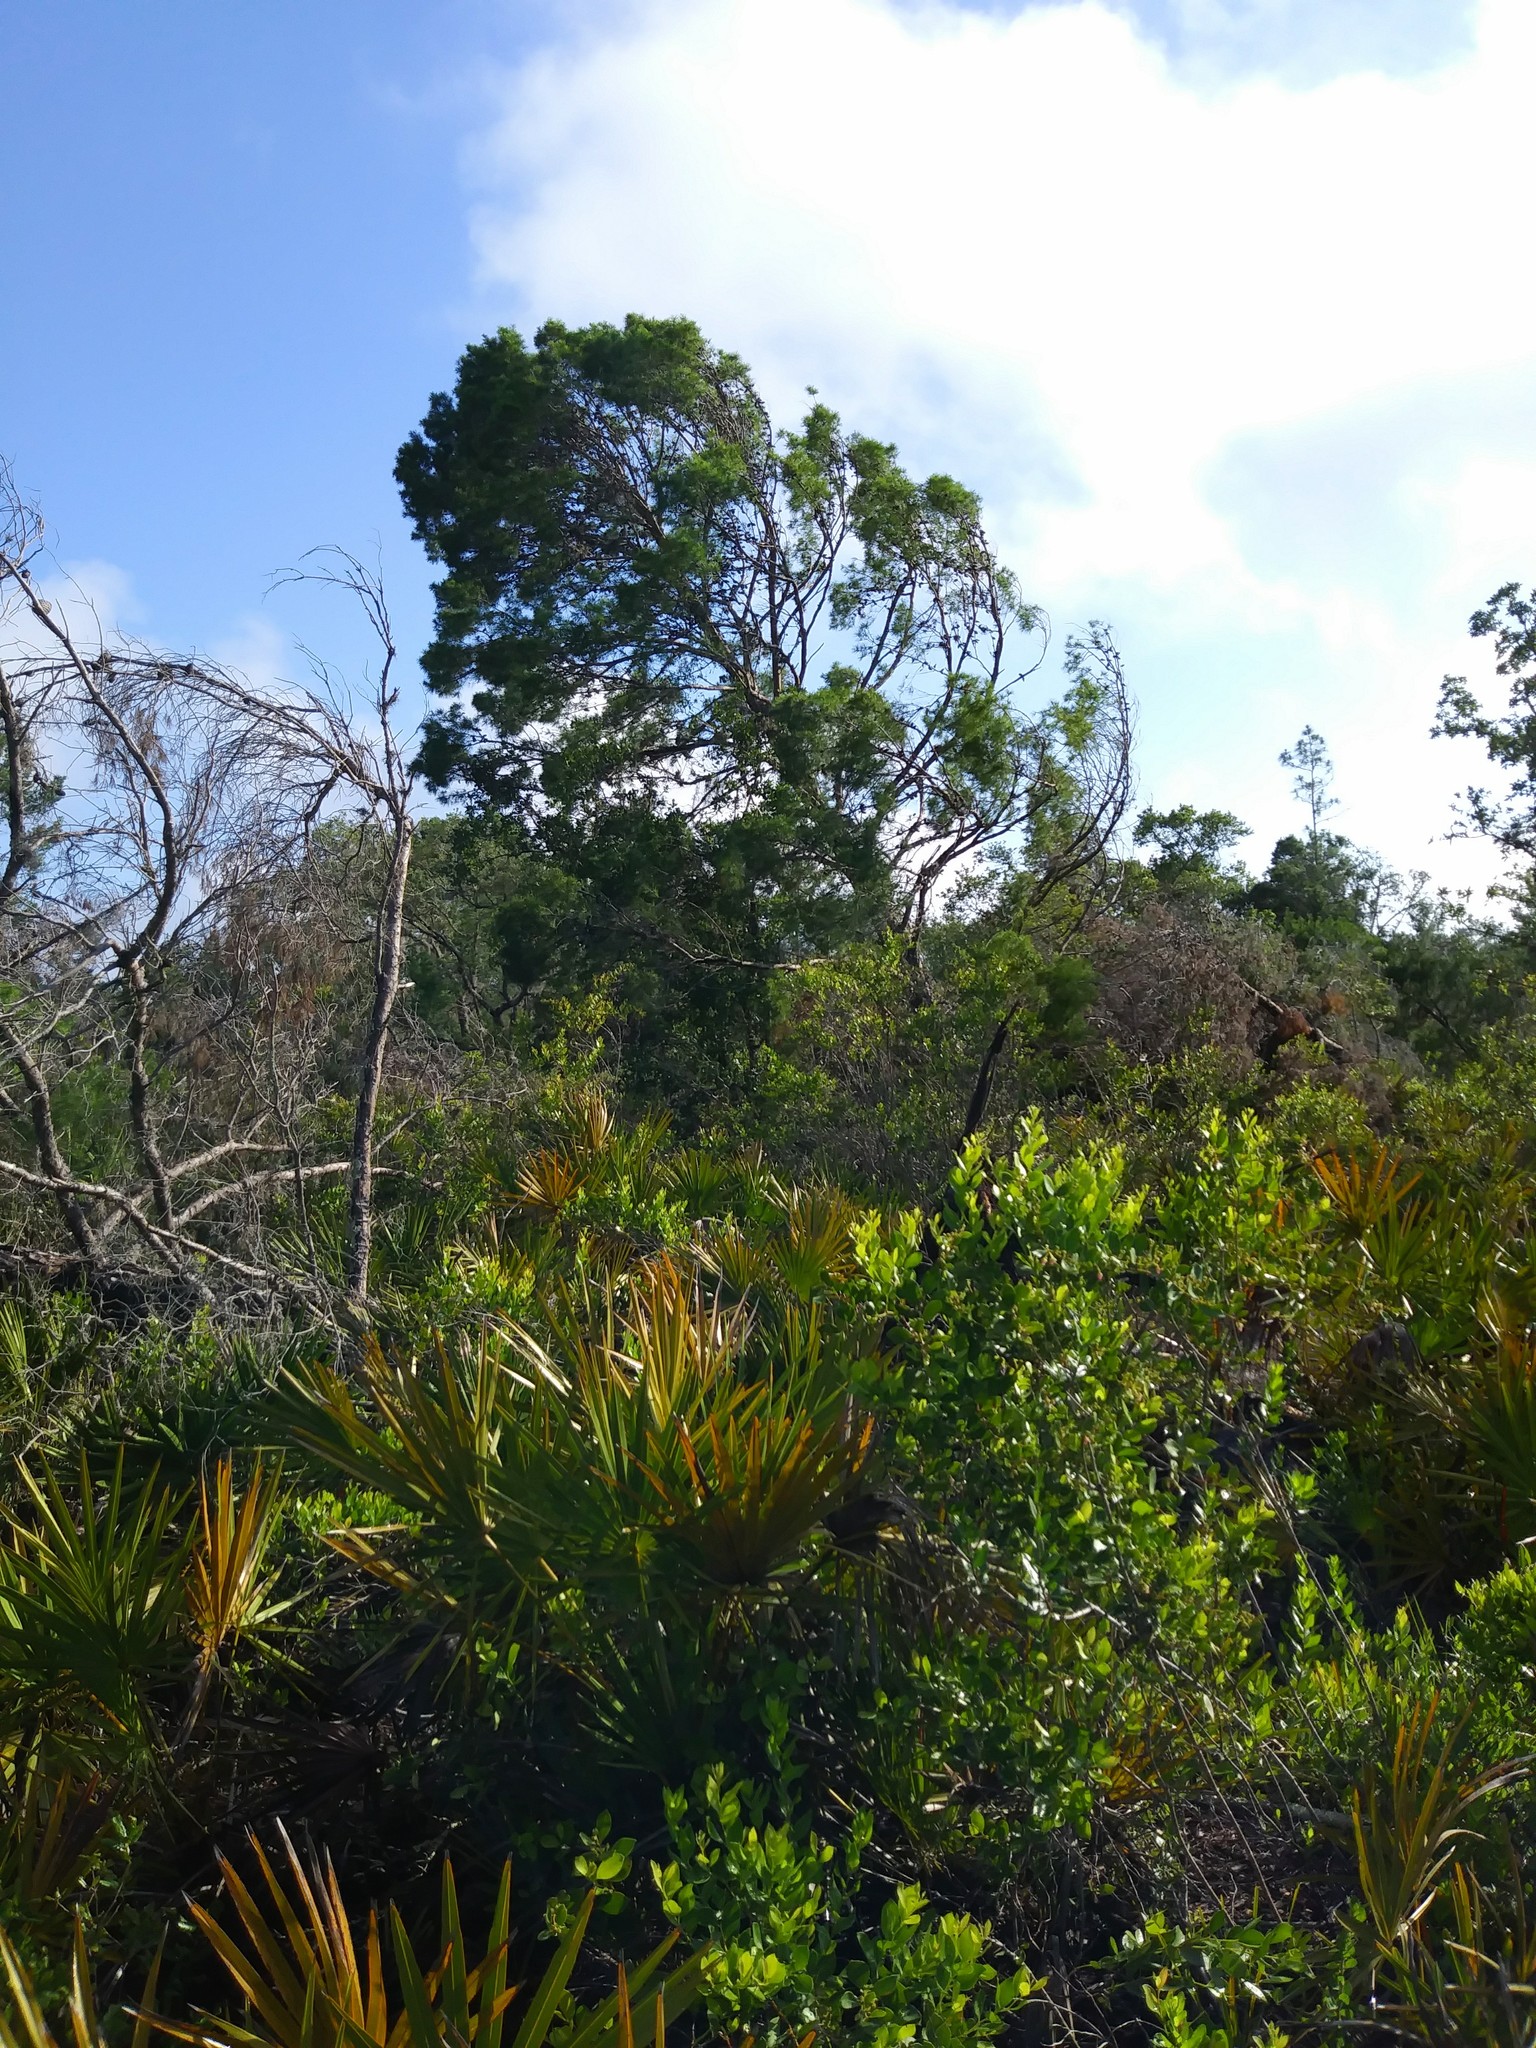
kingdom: Plantae
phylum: Tracheophyta
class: Pinopsida
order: Pinales
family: Pinaceae
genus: Pinus
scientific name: Pinus clausa
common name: Sand pine
